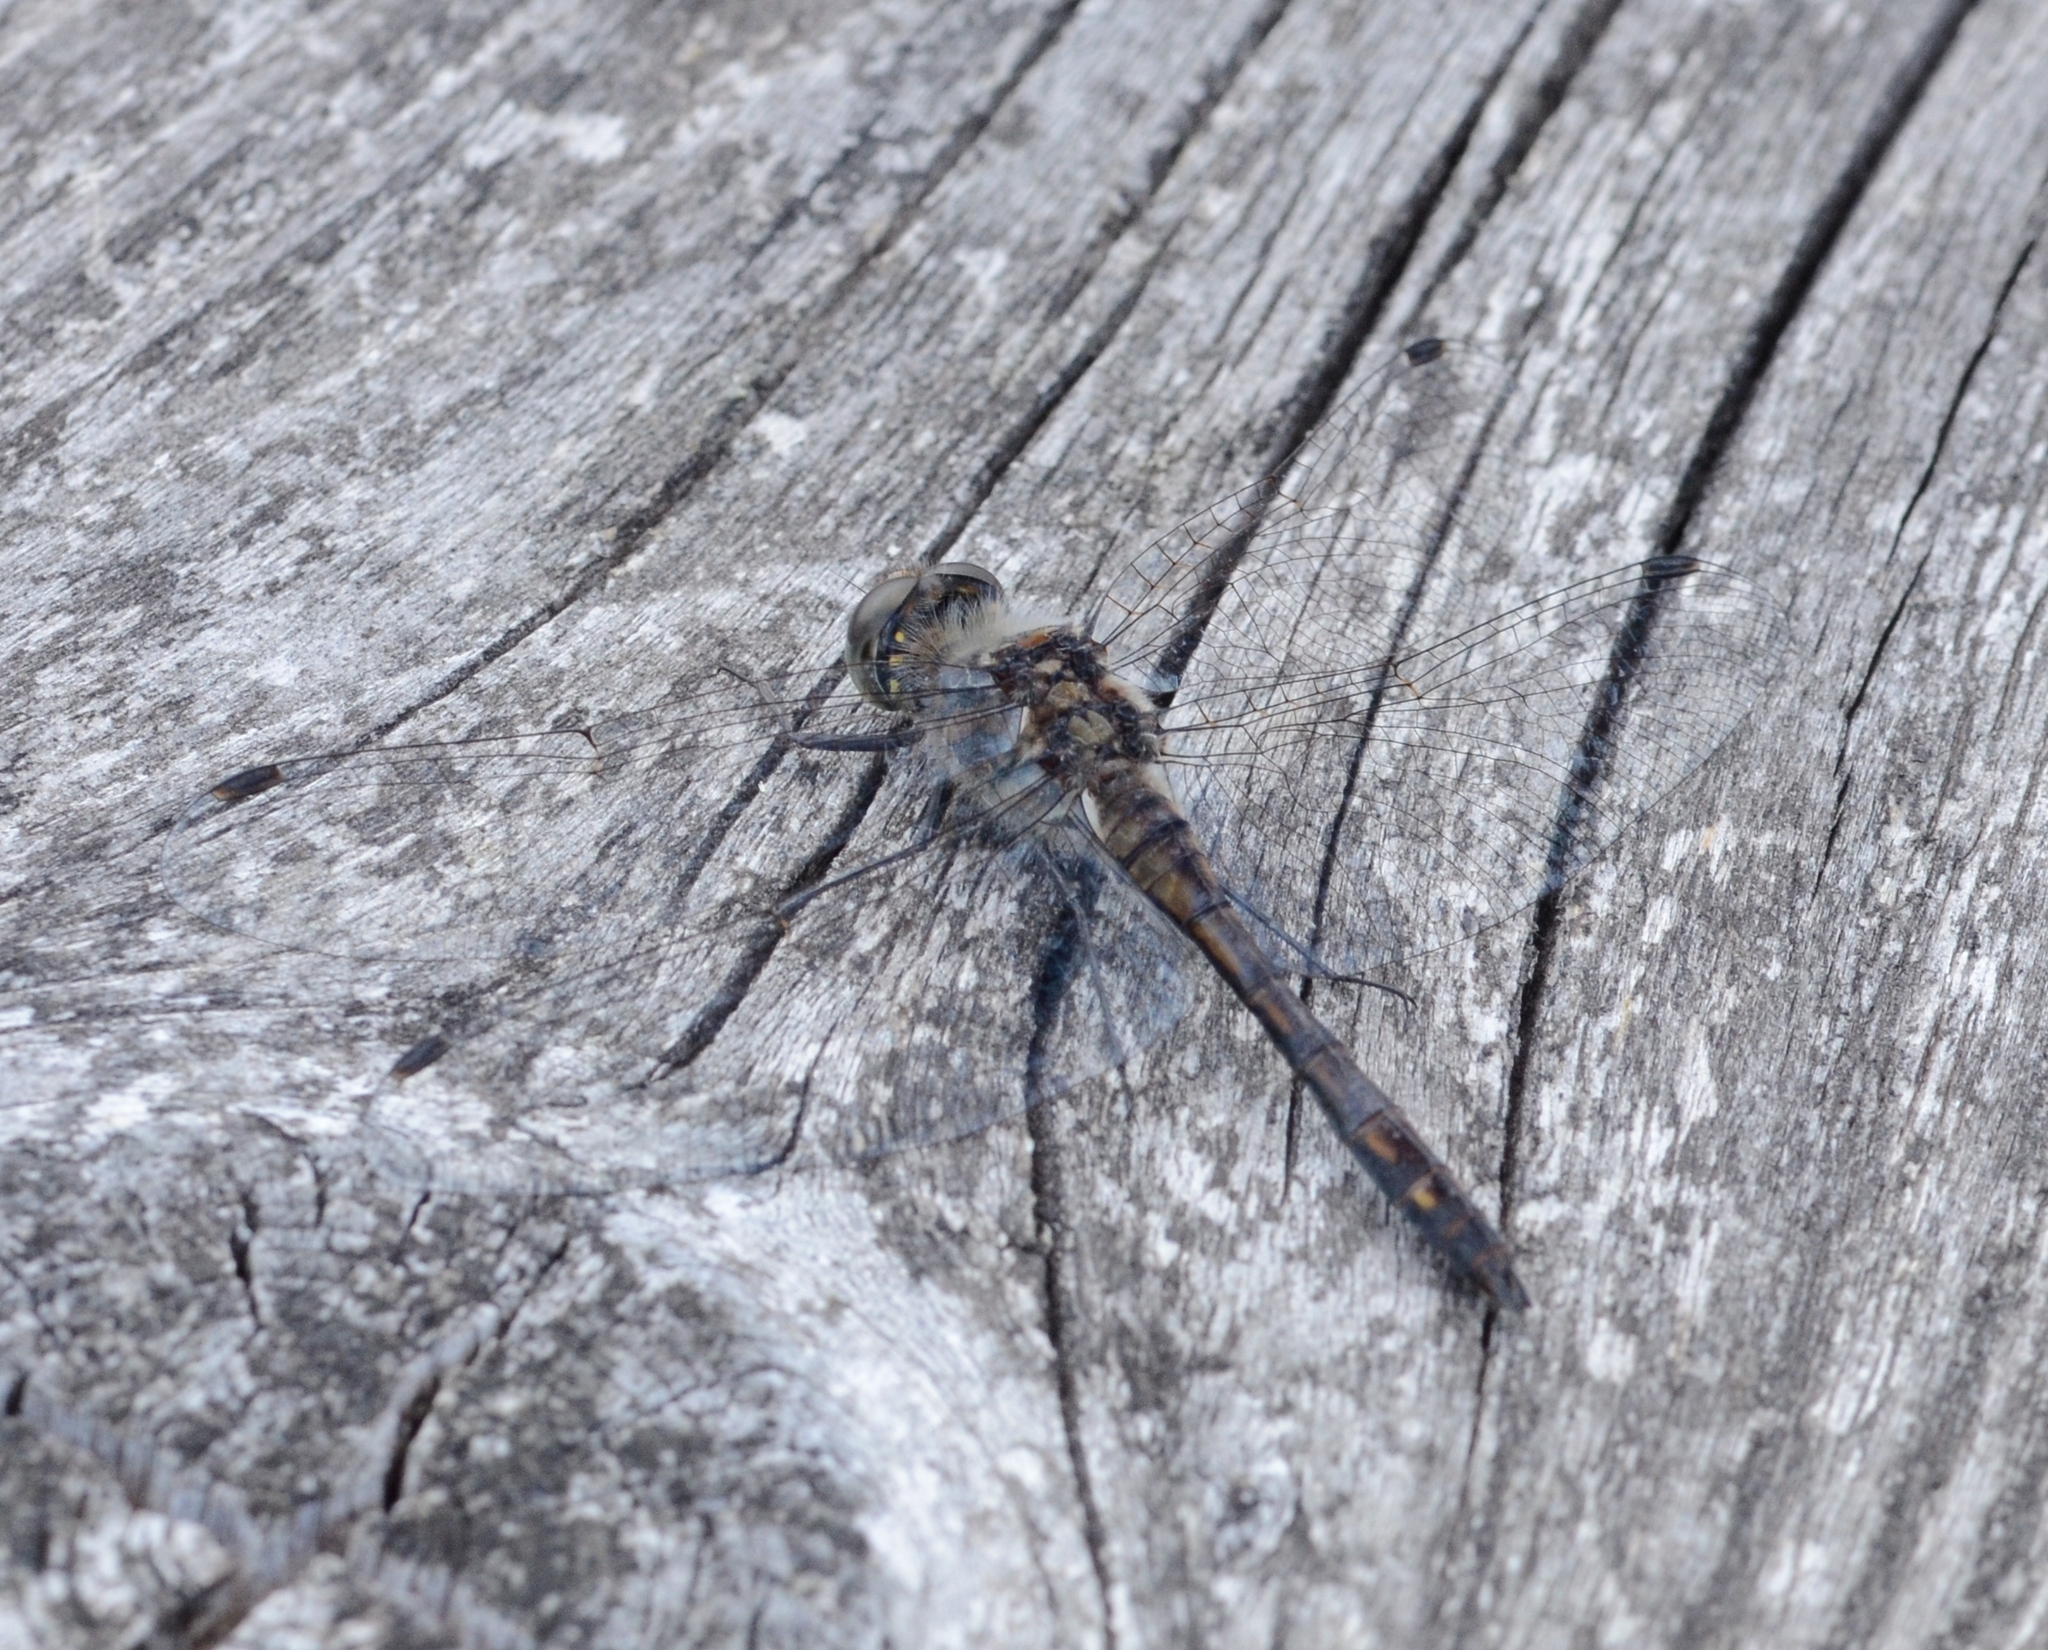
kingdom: Animalia
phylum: Arthropoda
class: Insecta
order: Odonata
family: Libellulidae
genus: Sympetrum
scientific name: Sympetrum danae
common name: Black darter
